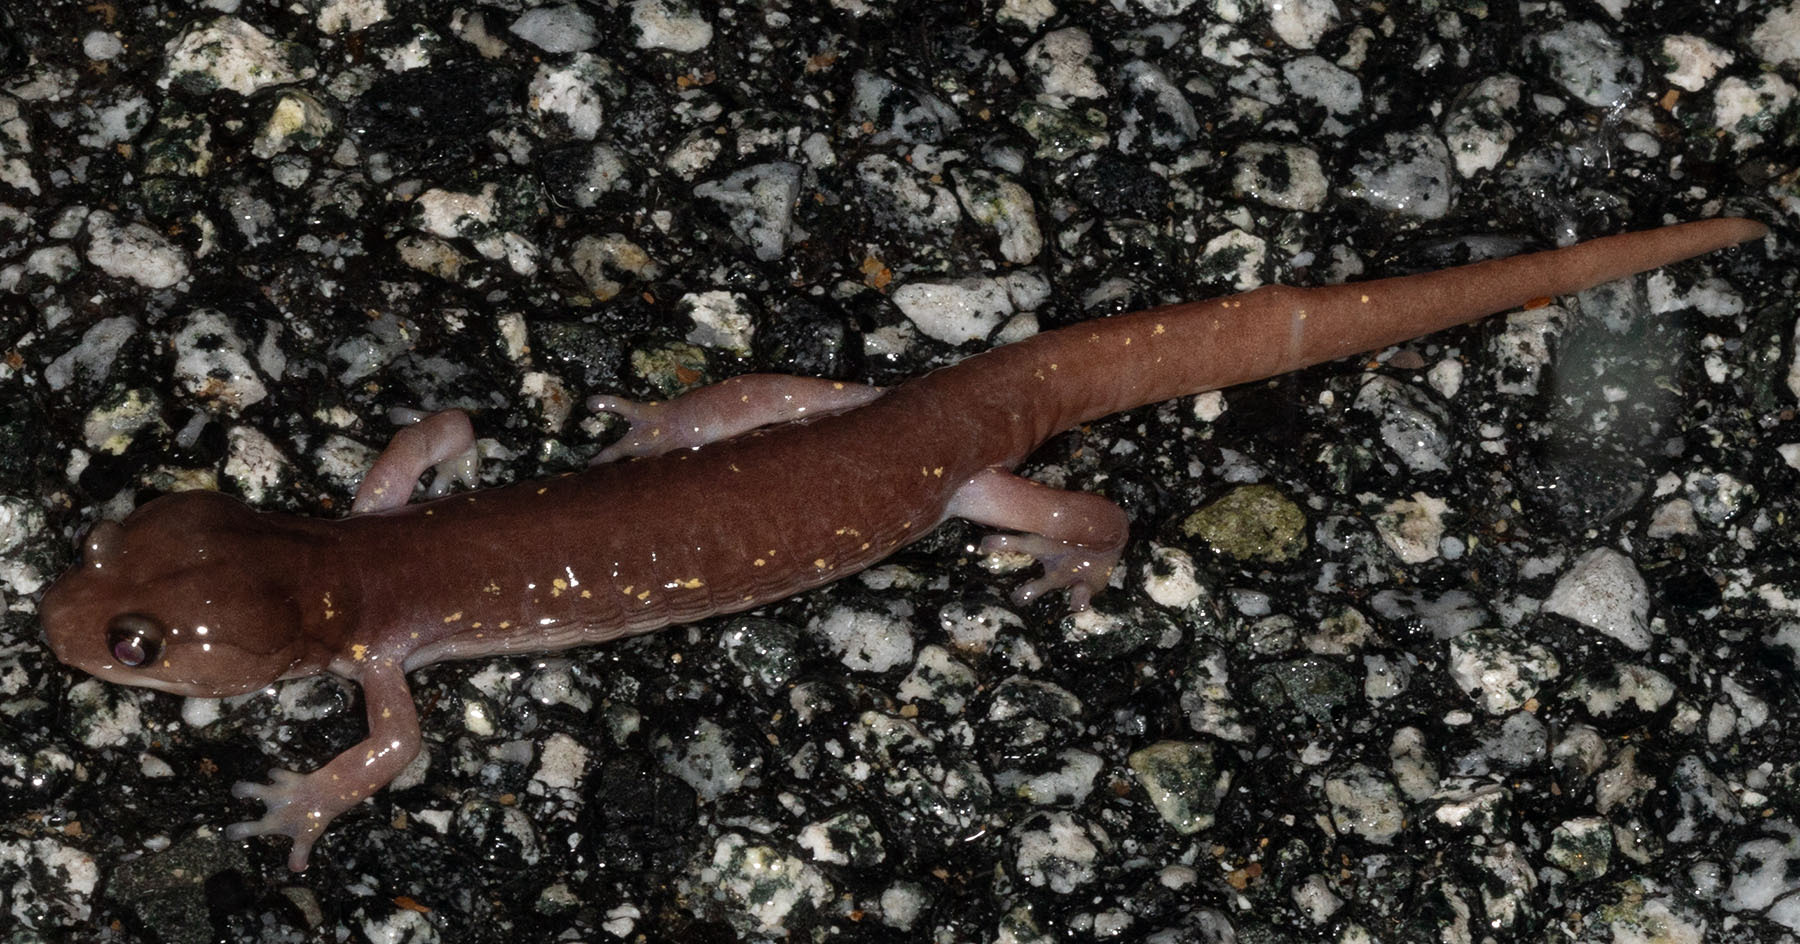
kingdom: Animalia
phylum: Chordata
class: Amphibia
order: Caudata
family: Plethodontidae
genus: Aneides
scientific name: Aneides lugubris
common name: Arboreal salamander
